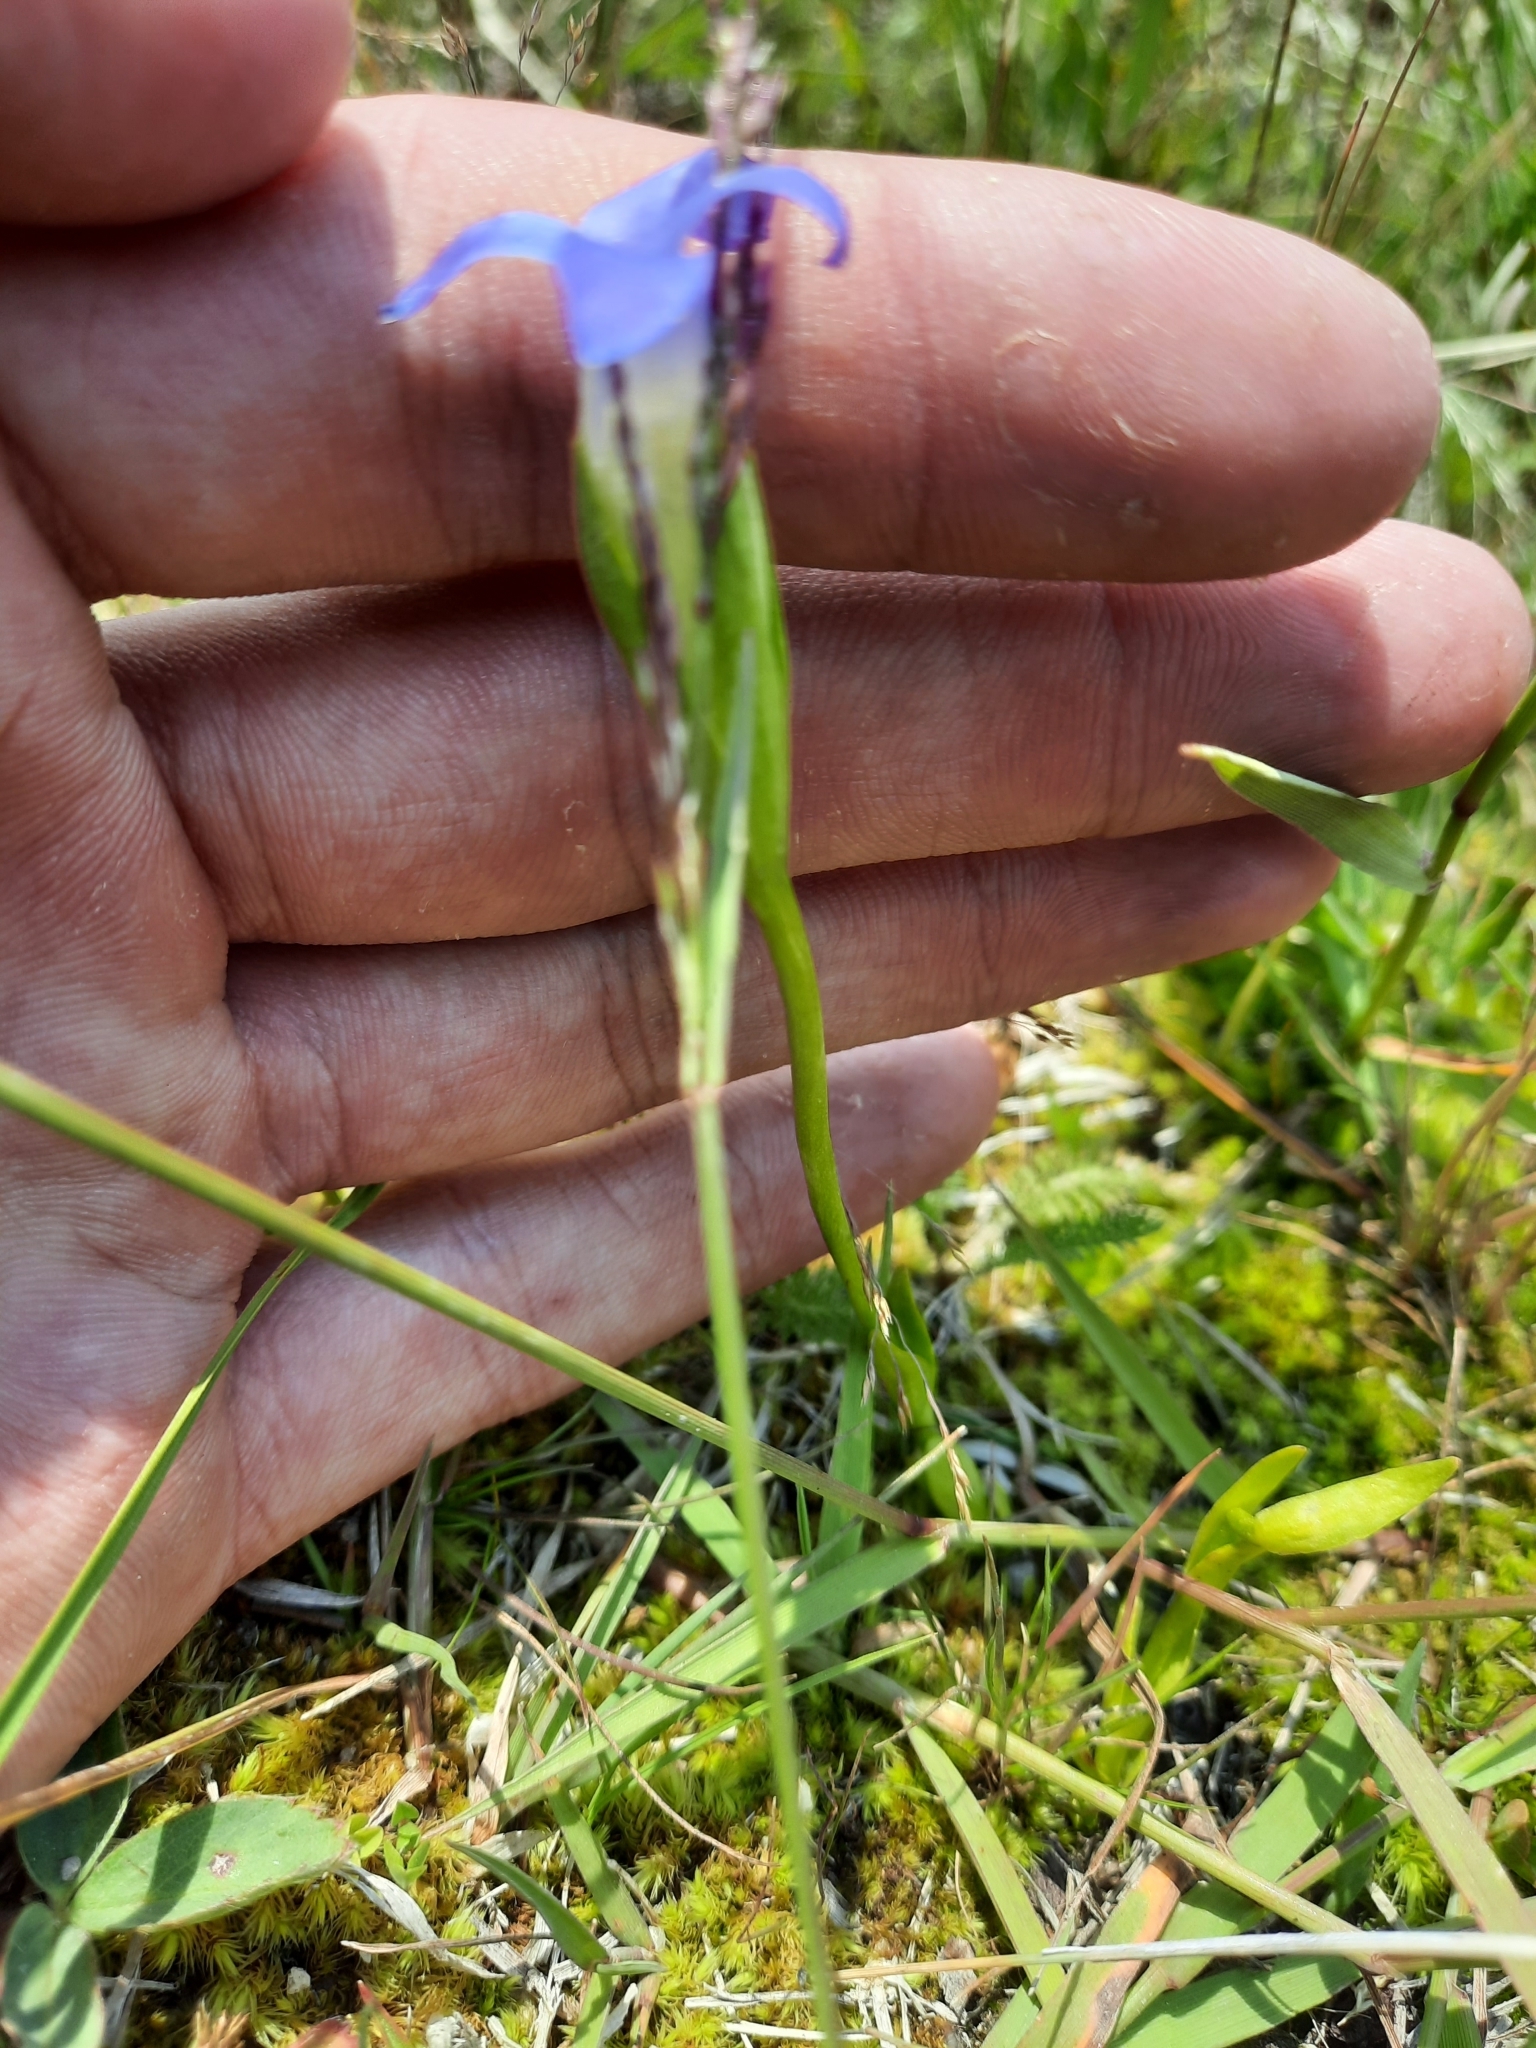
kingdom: Plantae
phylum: Tracheophyta
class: Magnoliopsida
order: Gentianales
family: Gentianaceae
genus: Gentianopsis
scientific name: Gentianopsis simplex
